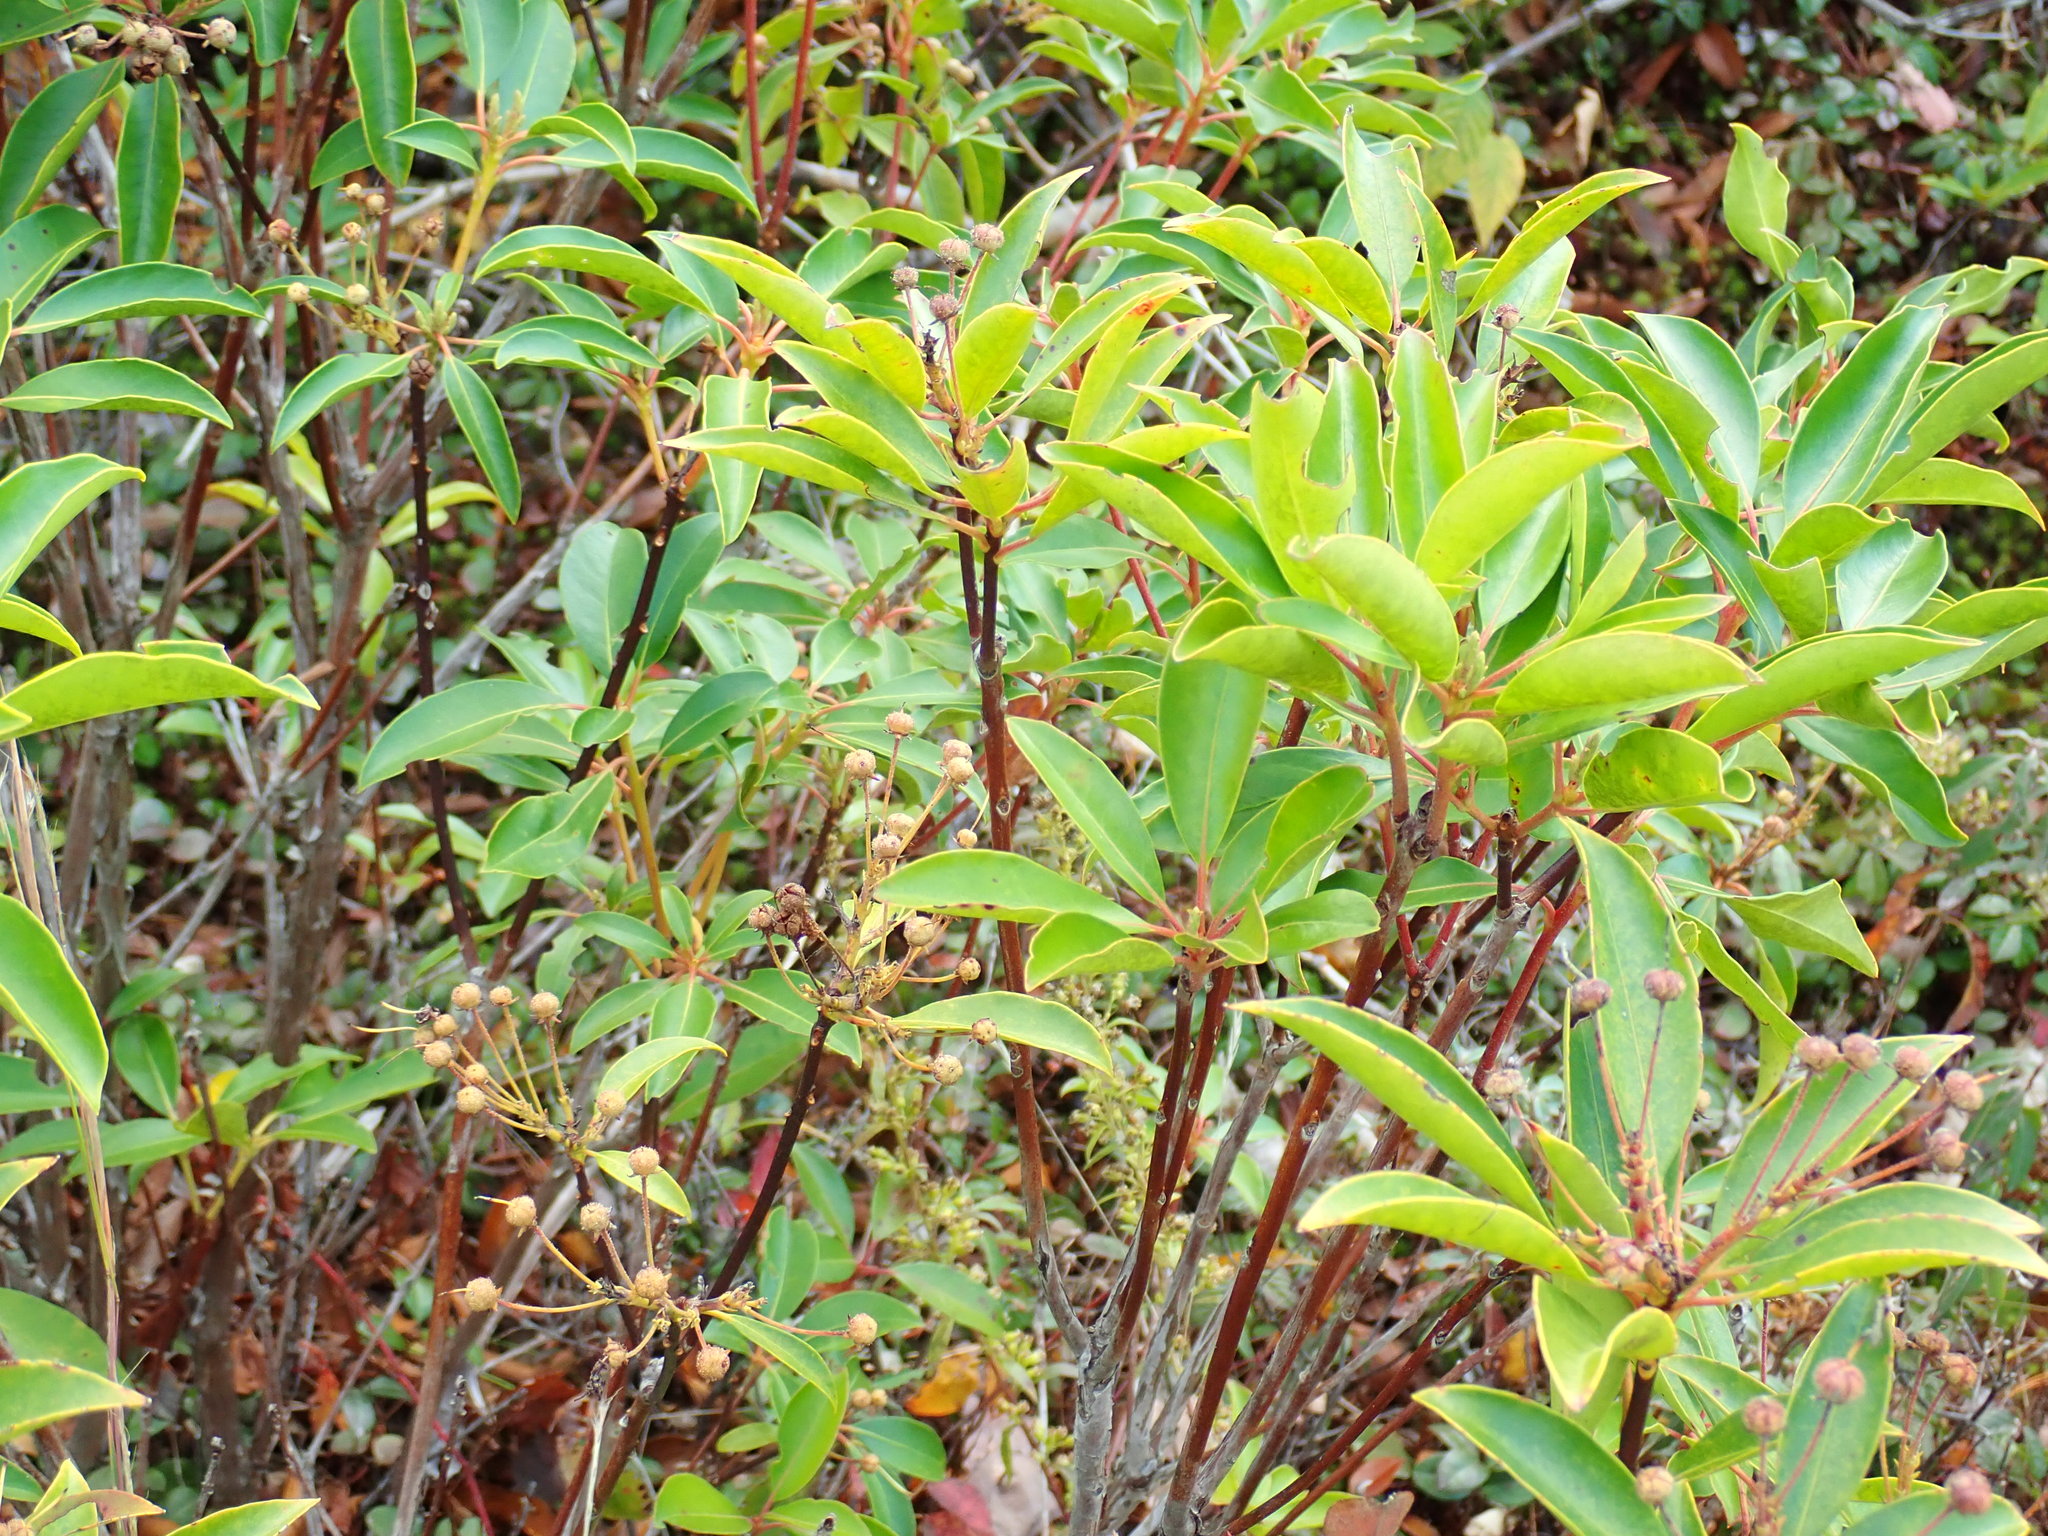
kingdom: Plantae
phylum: Tracheophyta
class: Magnoliopsida
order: Ericales
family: Ericaceae
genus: Kalmia
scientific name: Kalmia latifolia
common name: Mountain-laurel
